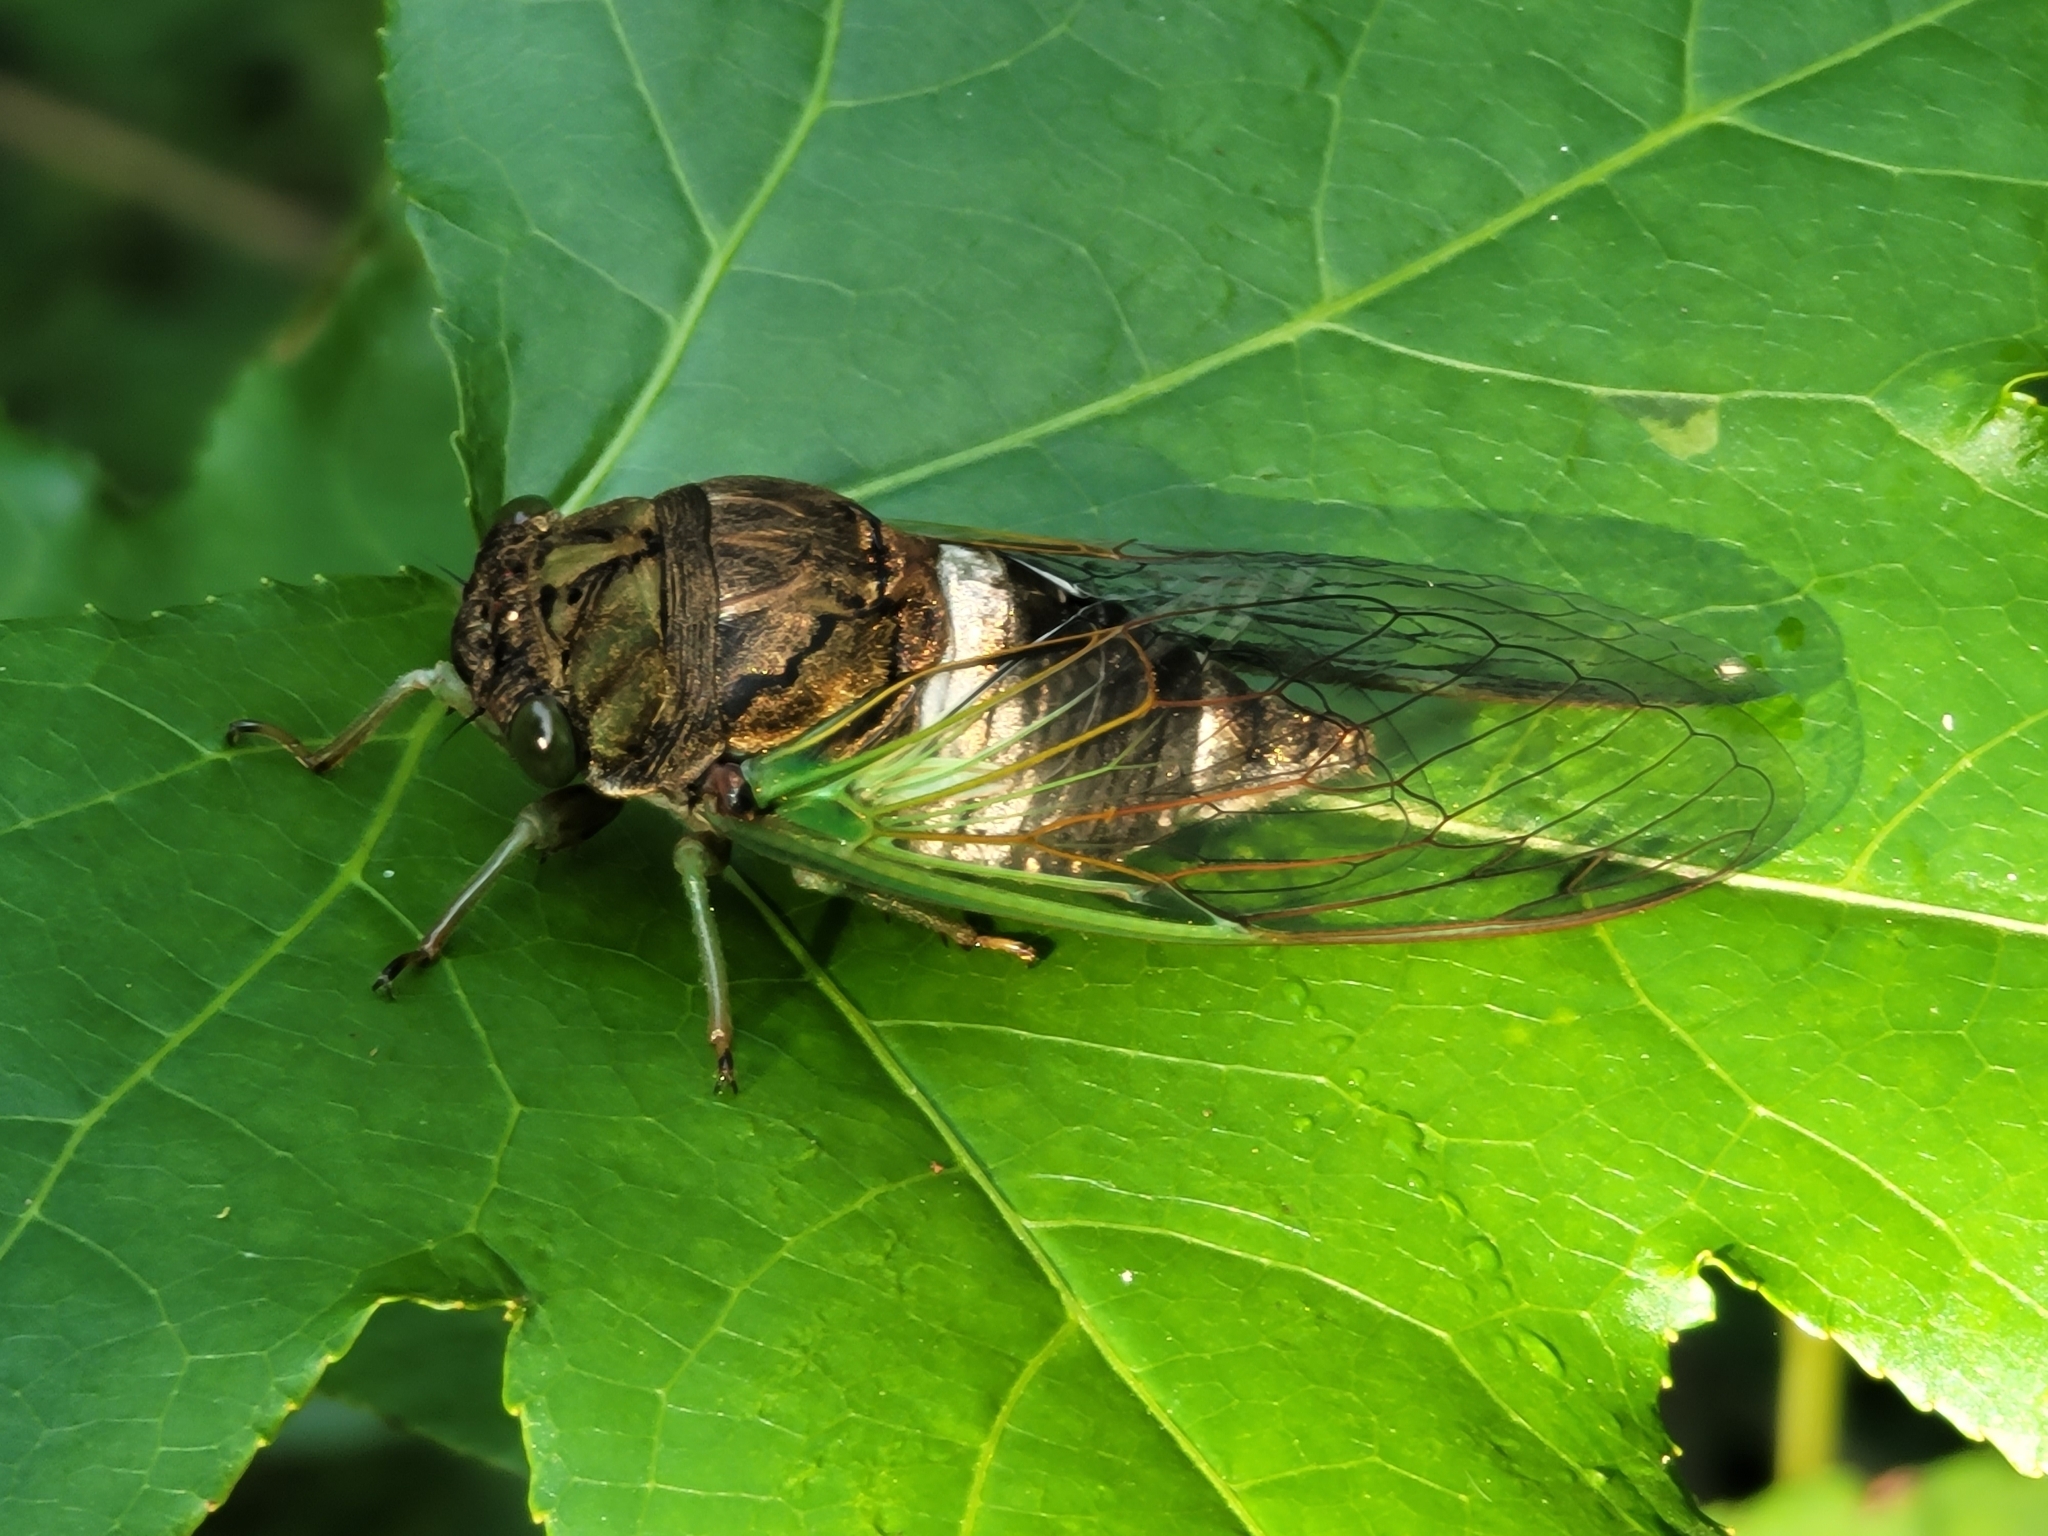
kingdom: Animalia
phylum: Arthropoda
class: Insecta
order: Hemiptera
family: Cicadidae
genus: Neotibicen
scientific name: Neotibicen tibicen
